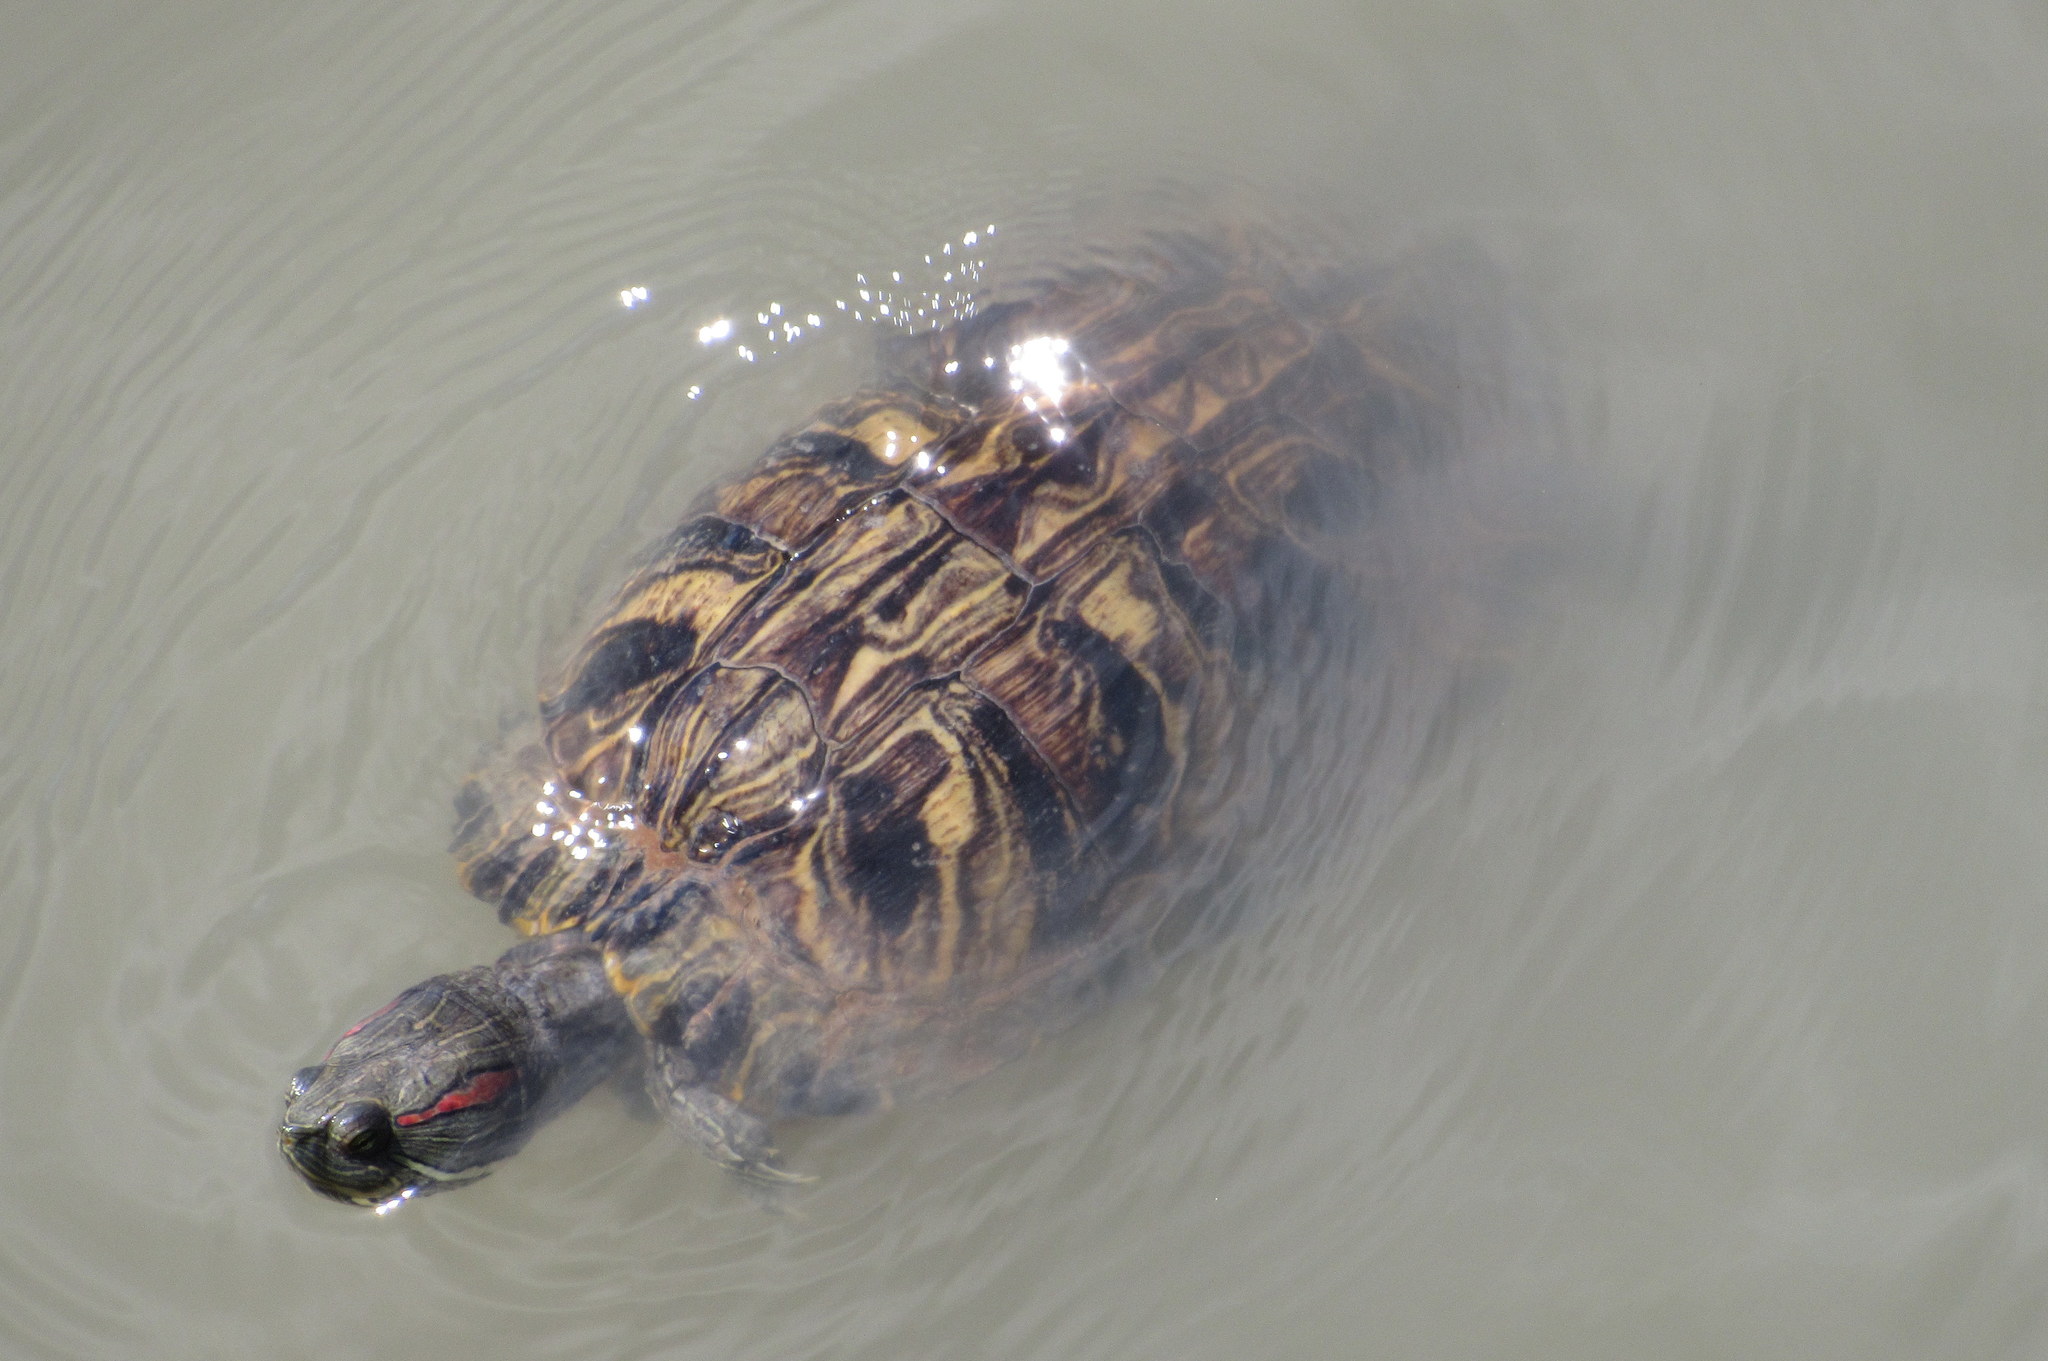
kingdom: Animalia
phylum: Chordata
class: Testudines
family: Emydidae
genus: Trachemys
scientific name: Trachemys scripta
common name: Slider
